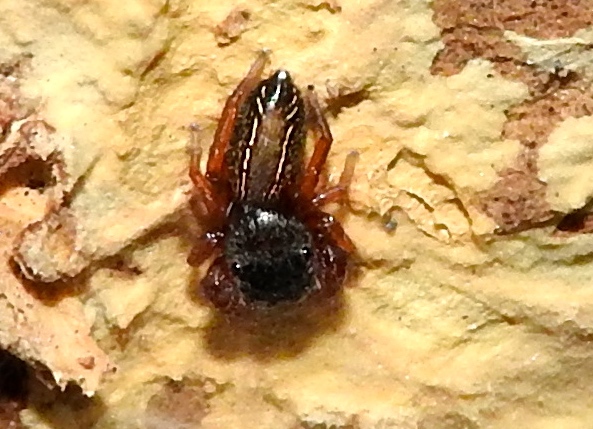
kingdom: Animalia
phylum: Arthropoda
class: Arachnida
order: Araneae
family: Salticidae
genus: Metacyrba
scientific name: Metacyrba
